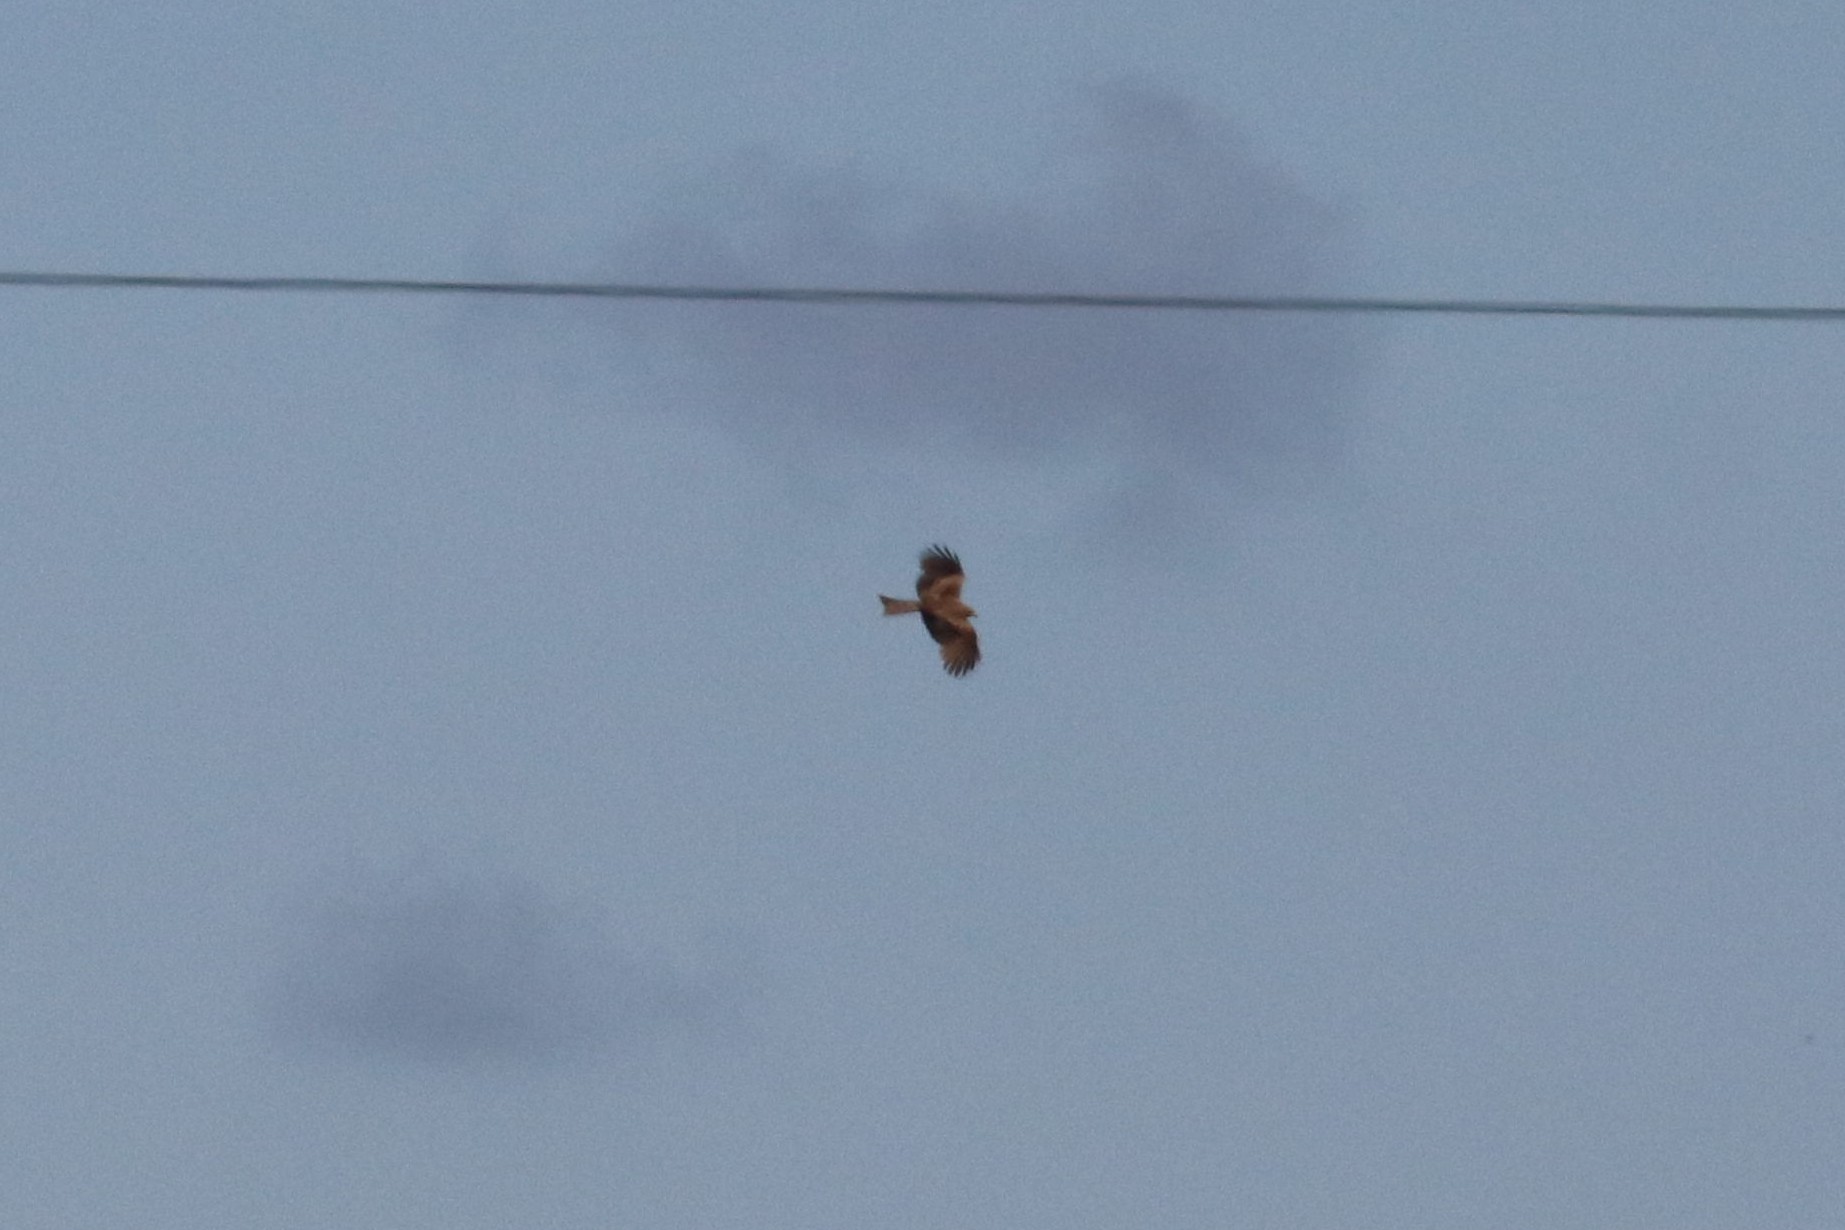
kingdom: Animalia
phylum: Chordata
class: Aves
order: Accipitriformes
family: Accipitridae
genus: Milvus
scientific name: Milvus migrans
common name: Black kite
